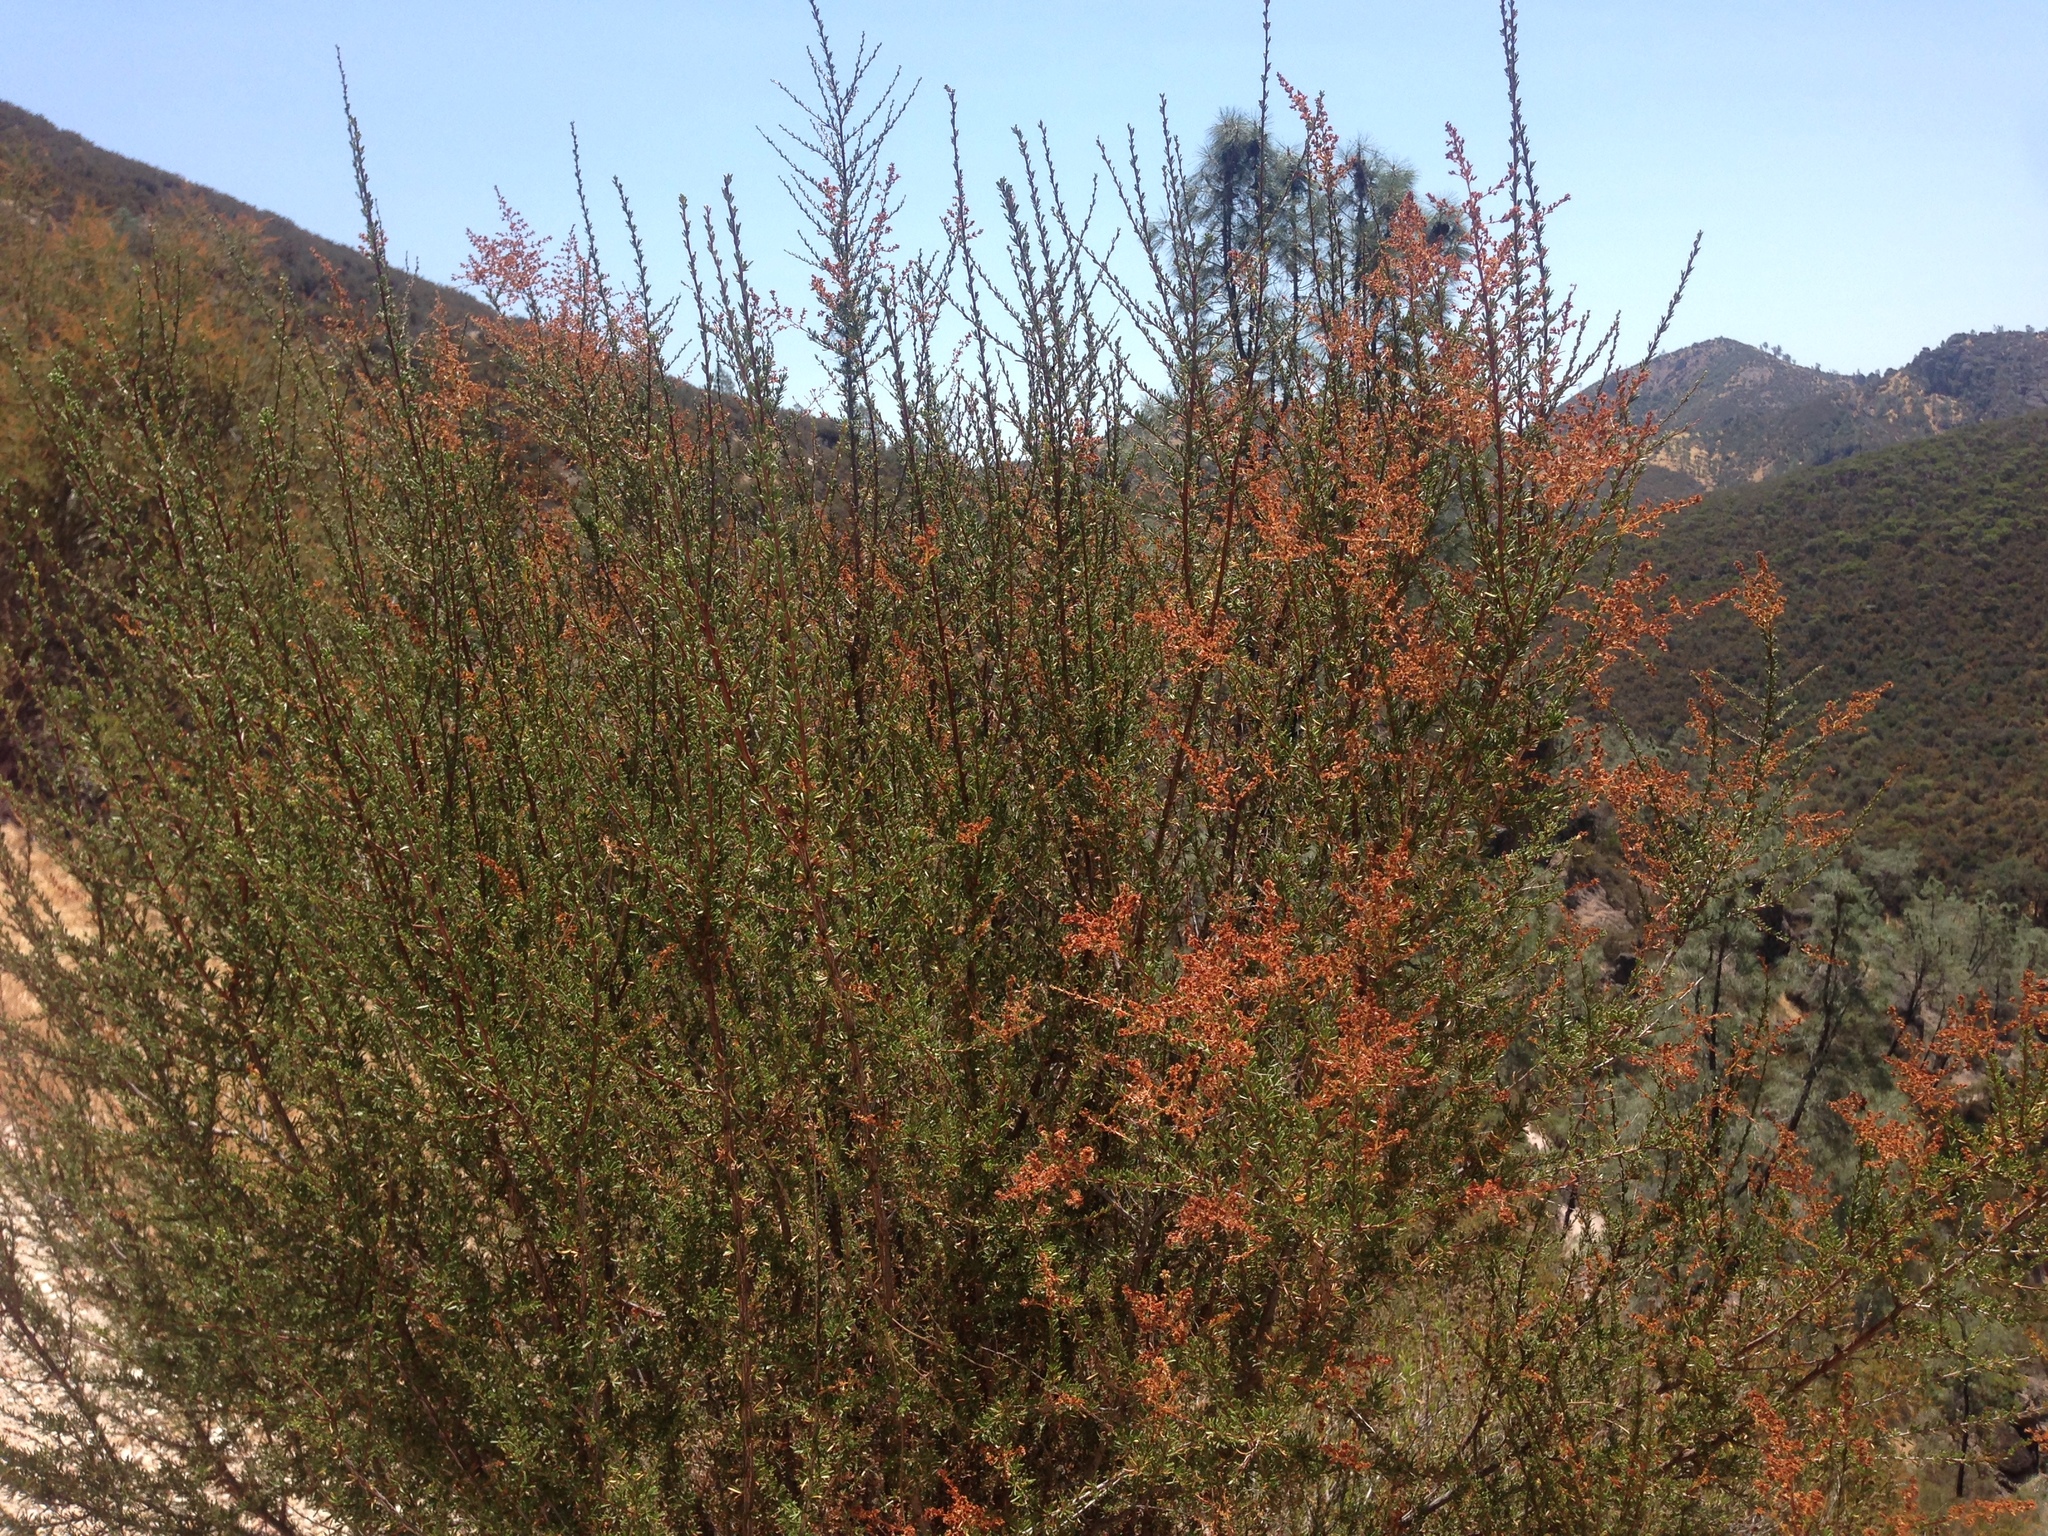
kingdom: Plantae
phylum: Tracheophyta
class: Magnoliopsida
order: Rosales
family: Rosaceae
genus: Adenostoma
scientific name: Adenostoma fasciculatum
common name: Chamise
